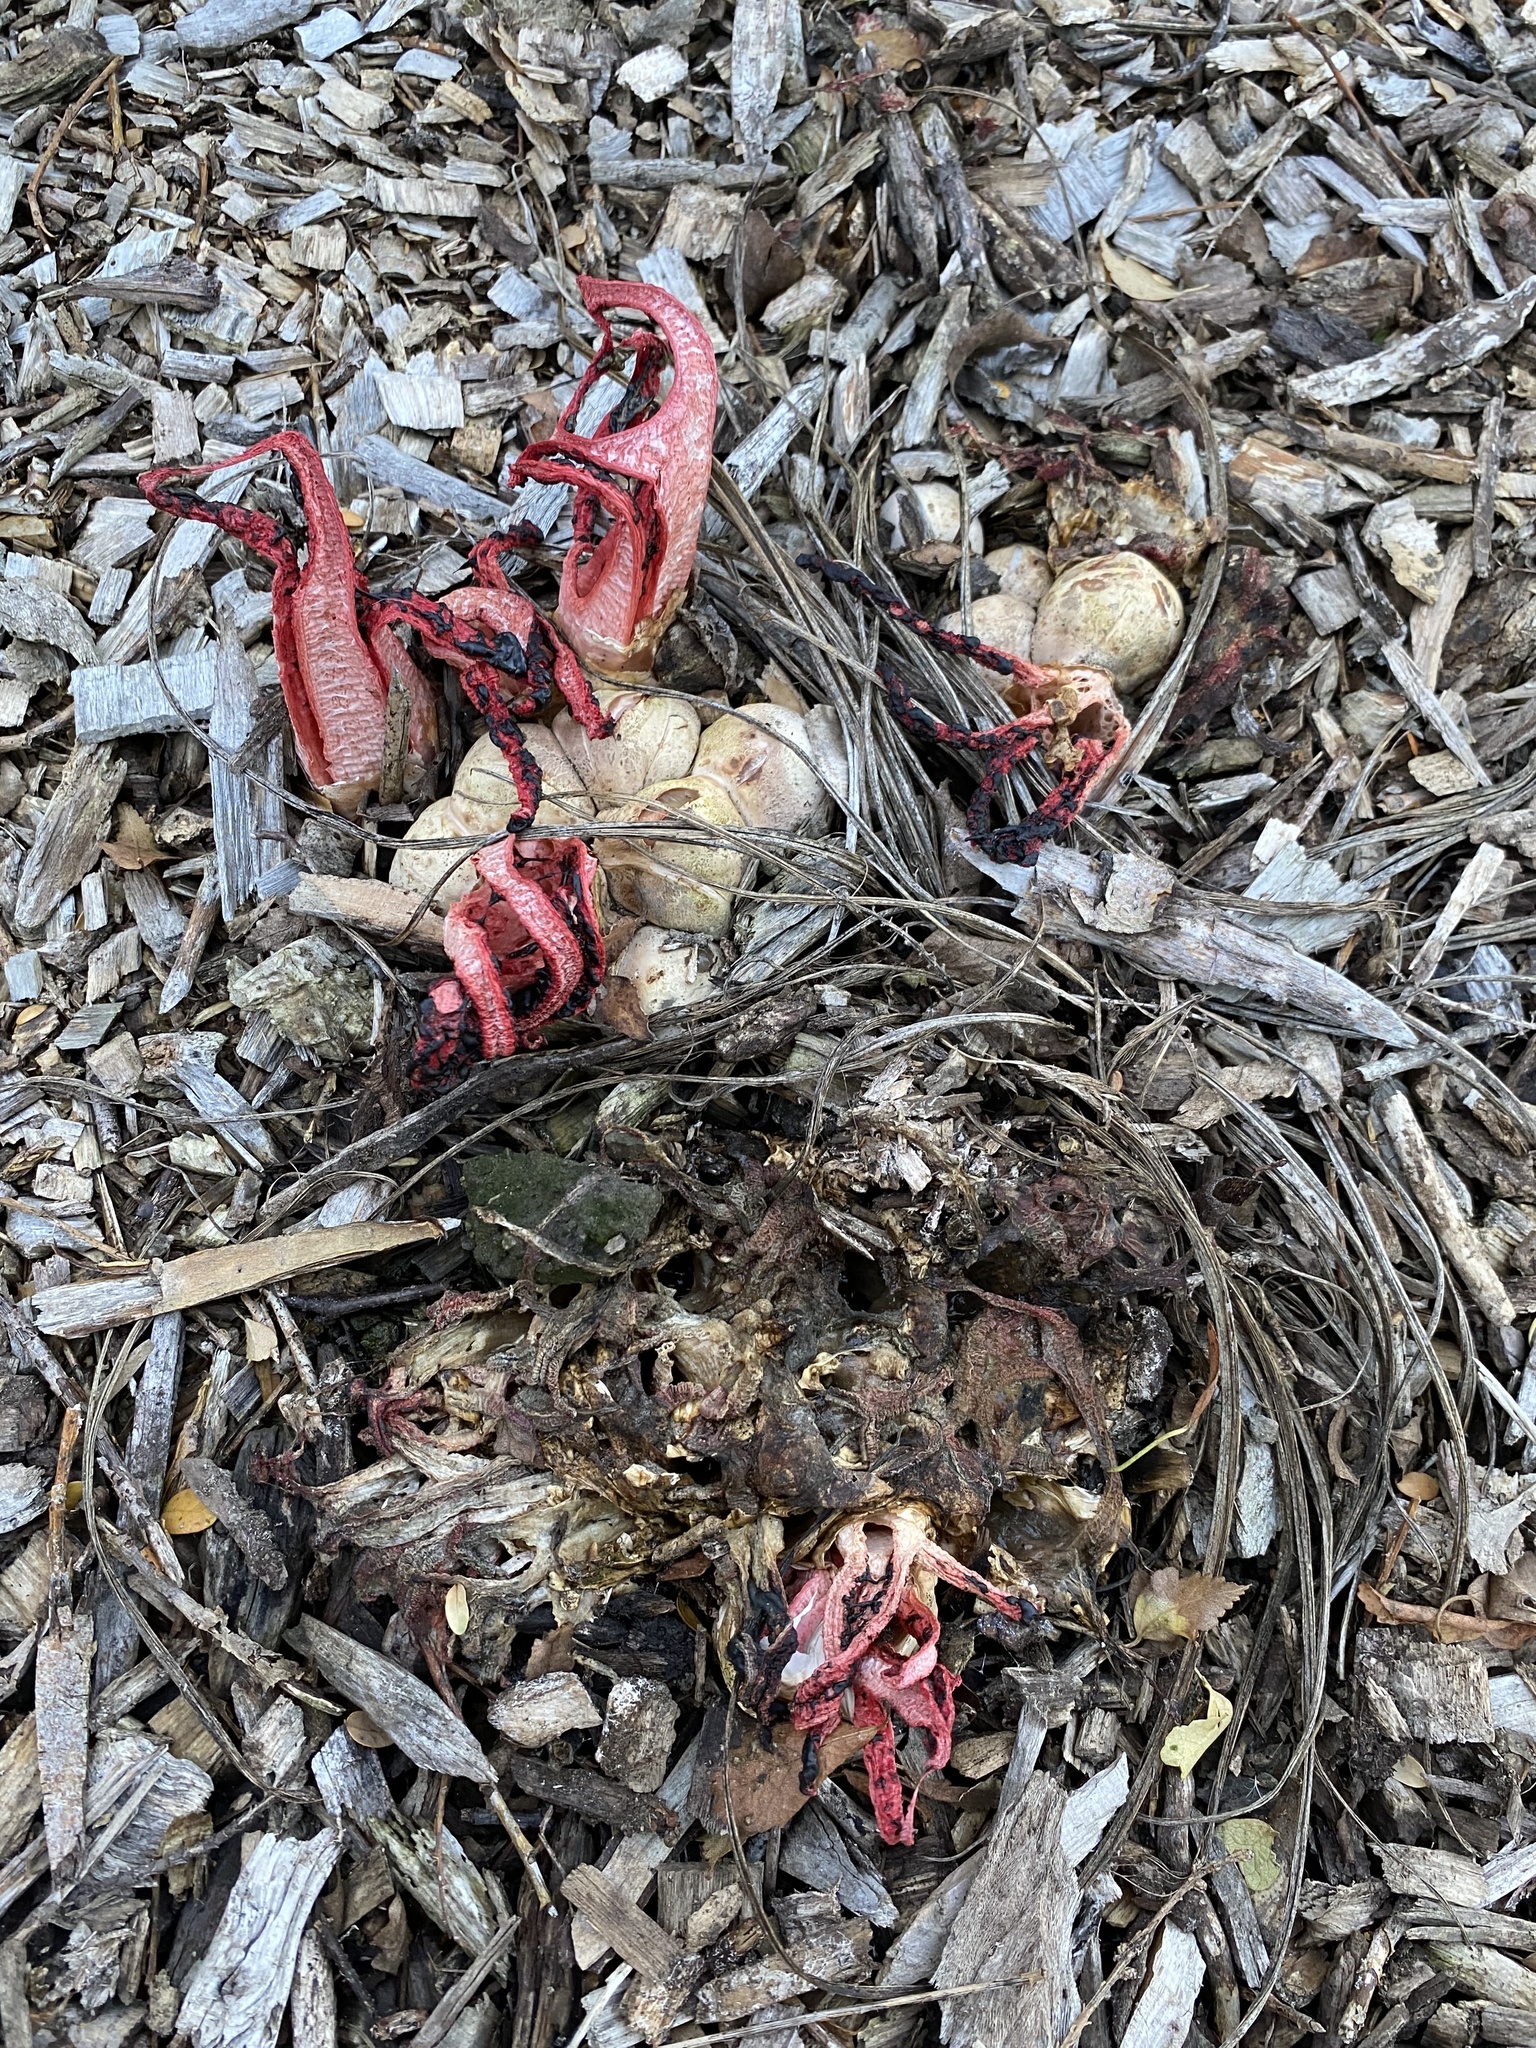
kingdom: Fungi
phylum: Basidiomycota
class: Agaricomycetes
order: Phallales
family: Phallaceae
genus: Clathrus
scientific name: Clathrus archeri
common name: Devil's fingers
